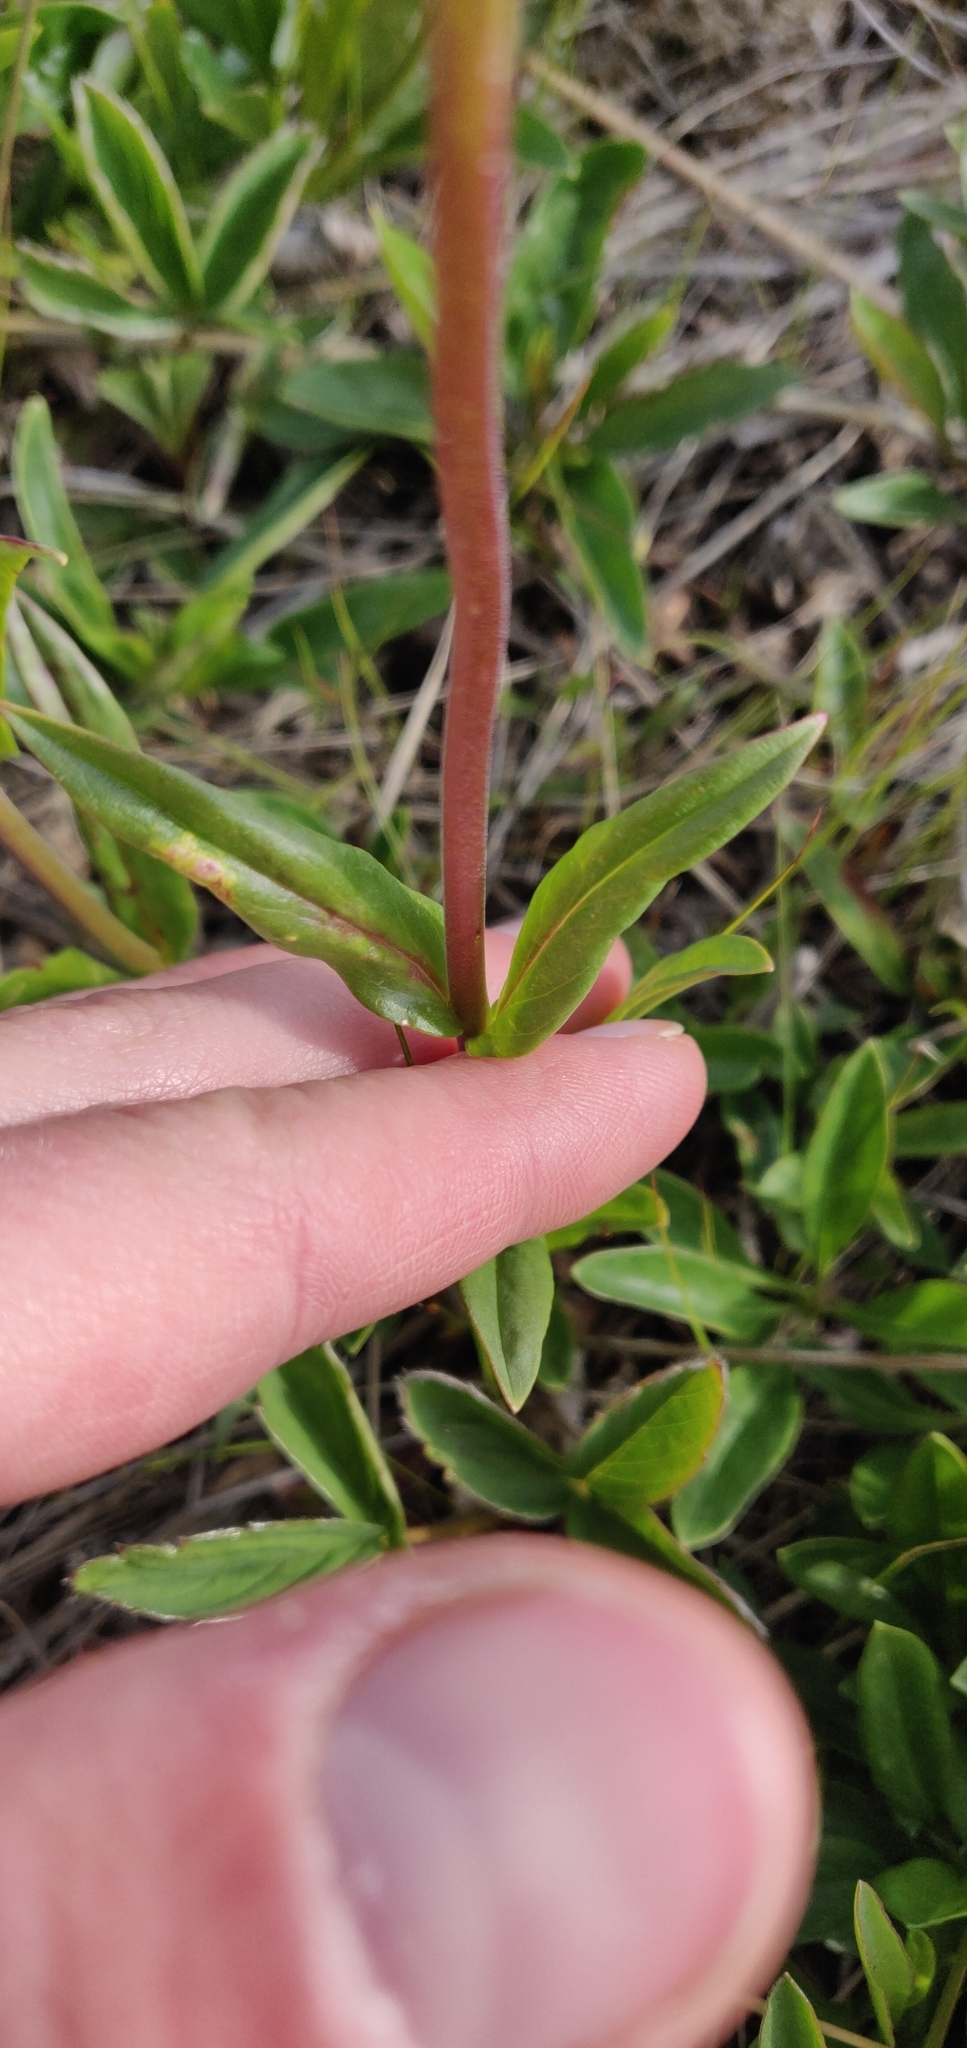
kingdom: Plantae
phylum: Tracheophyta
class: Magnoliopsida
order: Lamiales
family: Plantaginaceae
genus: Penstemon
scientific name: Penstemon confertus
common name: Lesser yellow beardtongue
